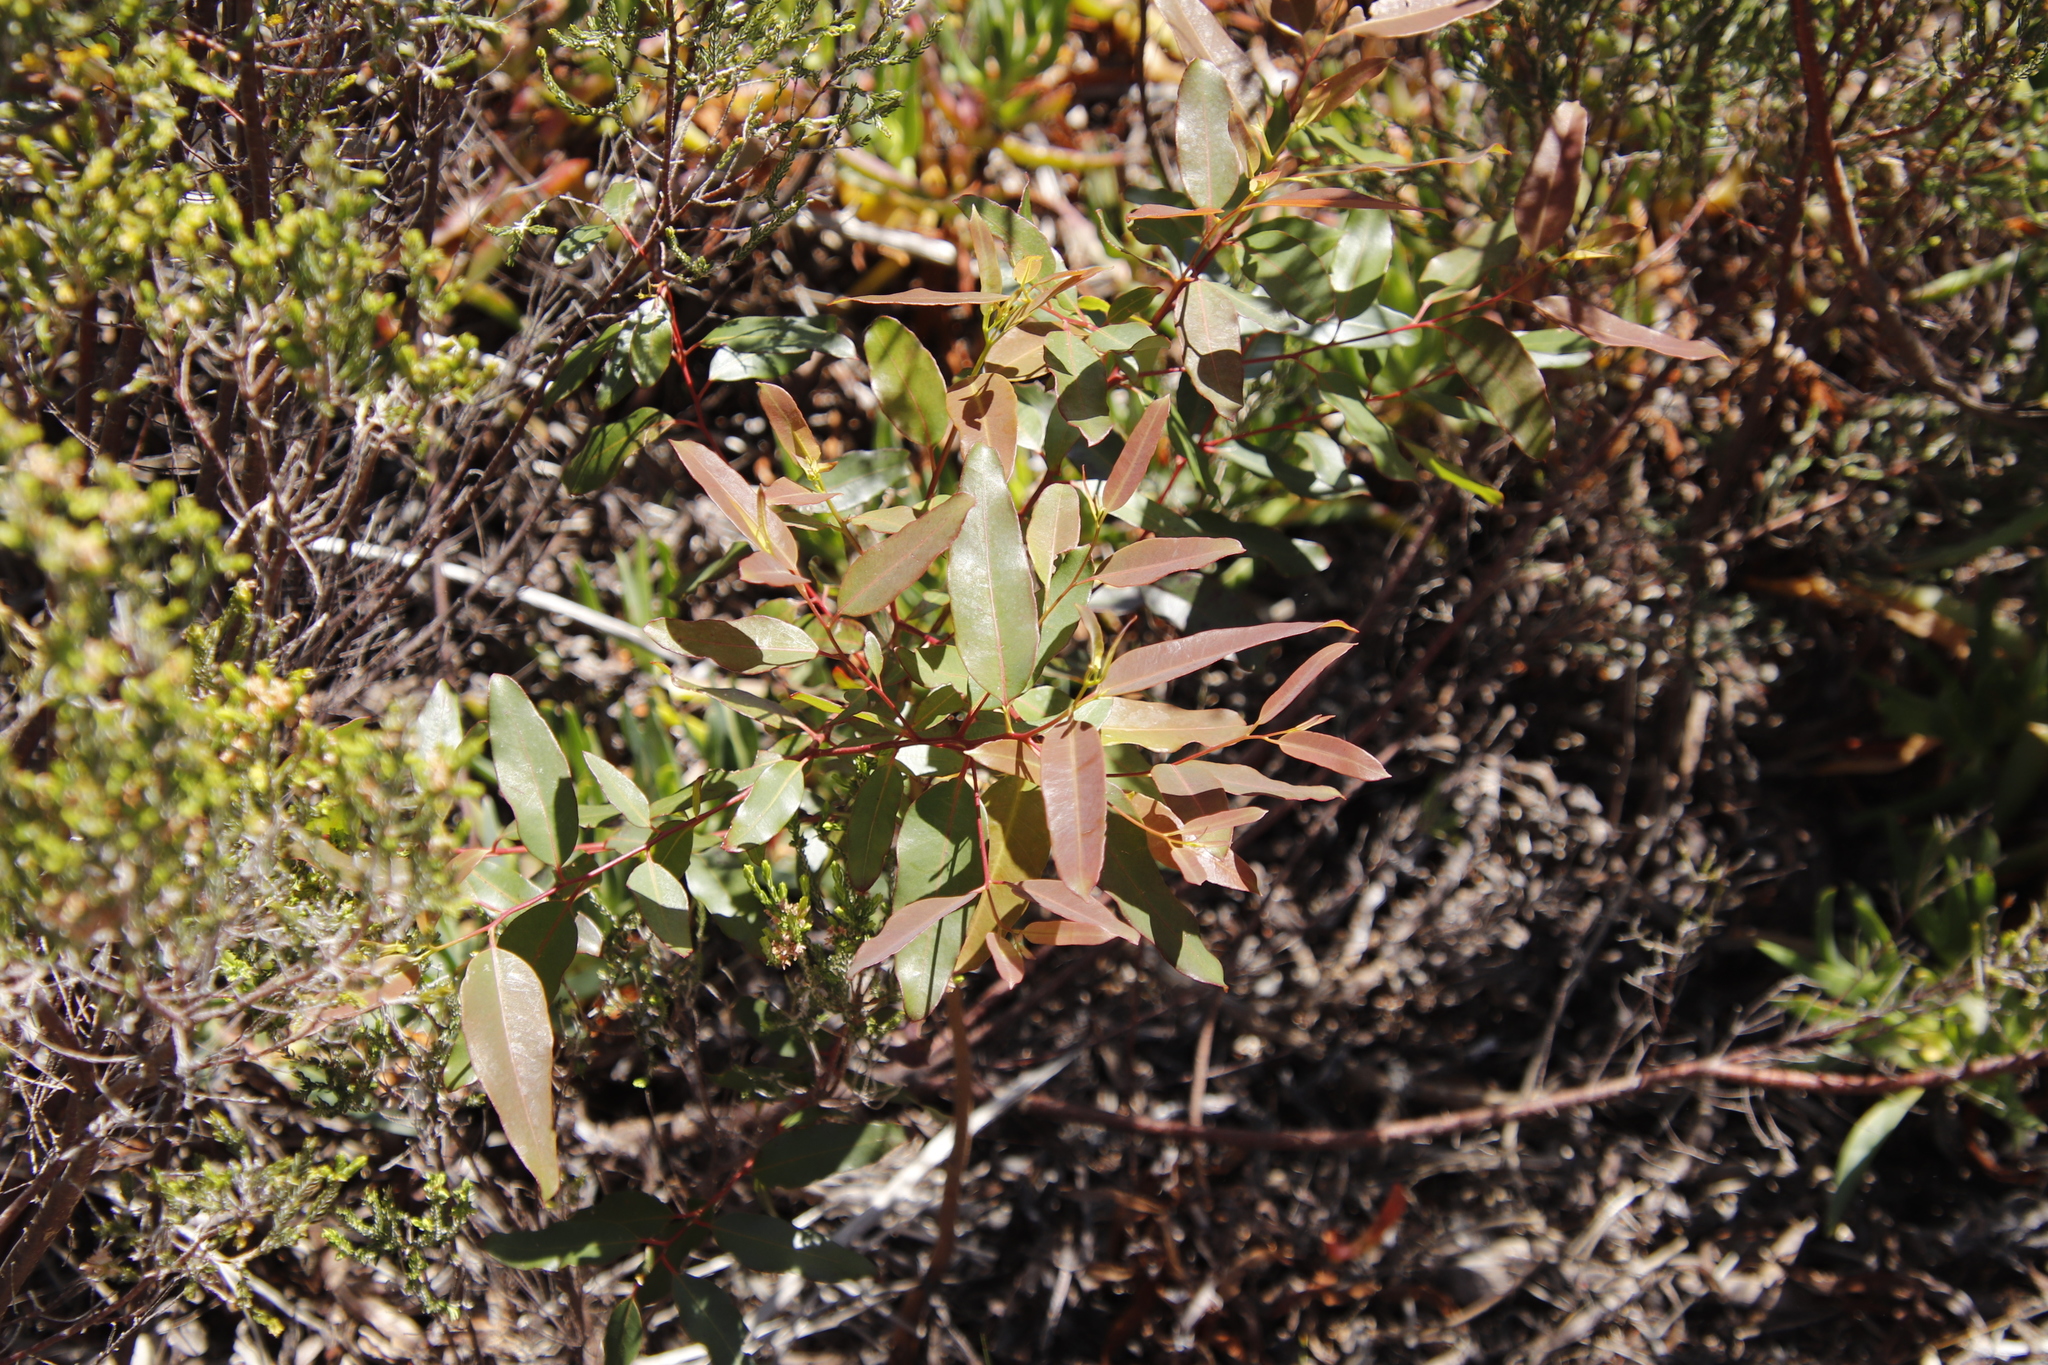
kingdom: Plantae
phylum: Tracheophyta
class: Magnoliopsida
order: Myrtales
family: Myrtaceae
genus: Eucalyptus
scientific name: Eucalyptus diversicolor
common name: Karri
